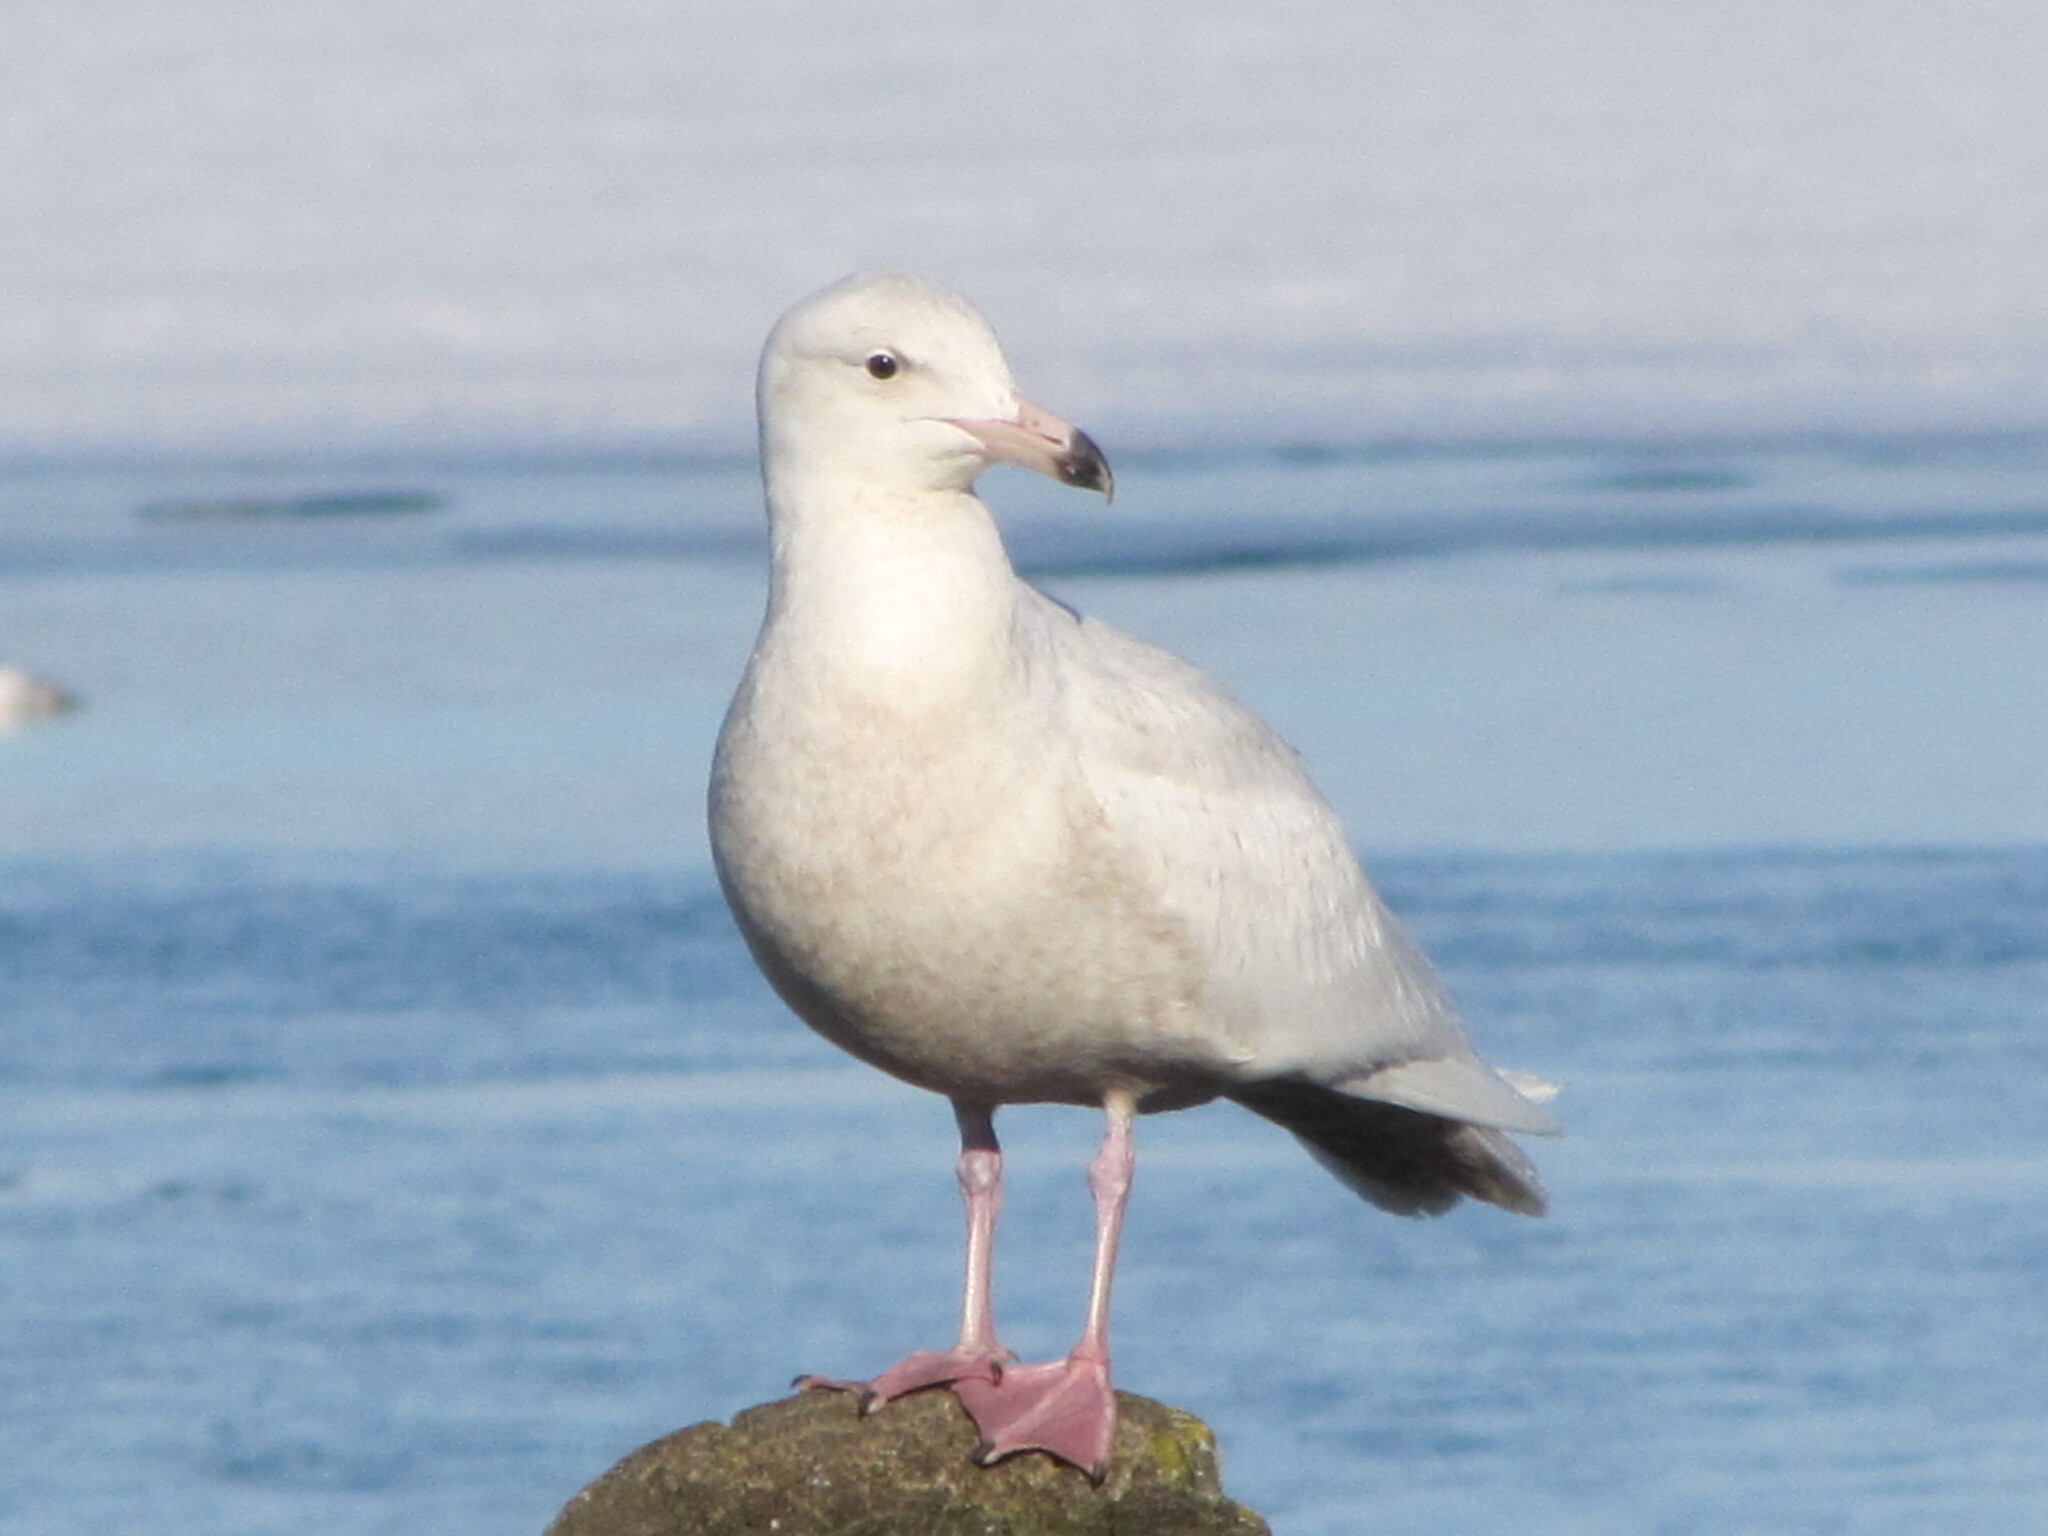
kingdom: Animalia
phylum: Chordata
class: Aves
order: Charadriiformes
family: Laridae
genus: Larus
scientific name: Larus hyperboreus
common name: Glaucous gull
